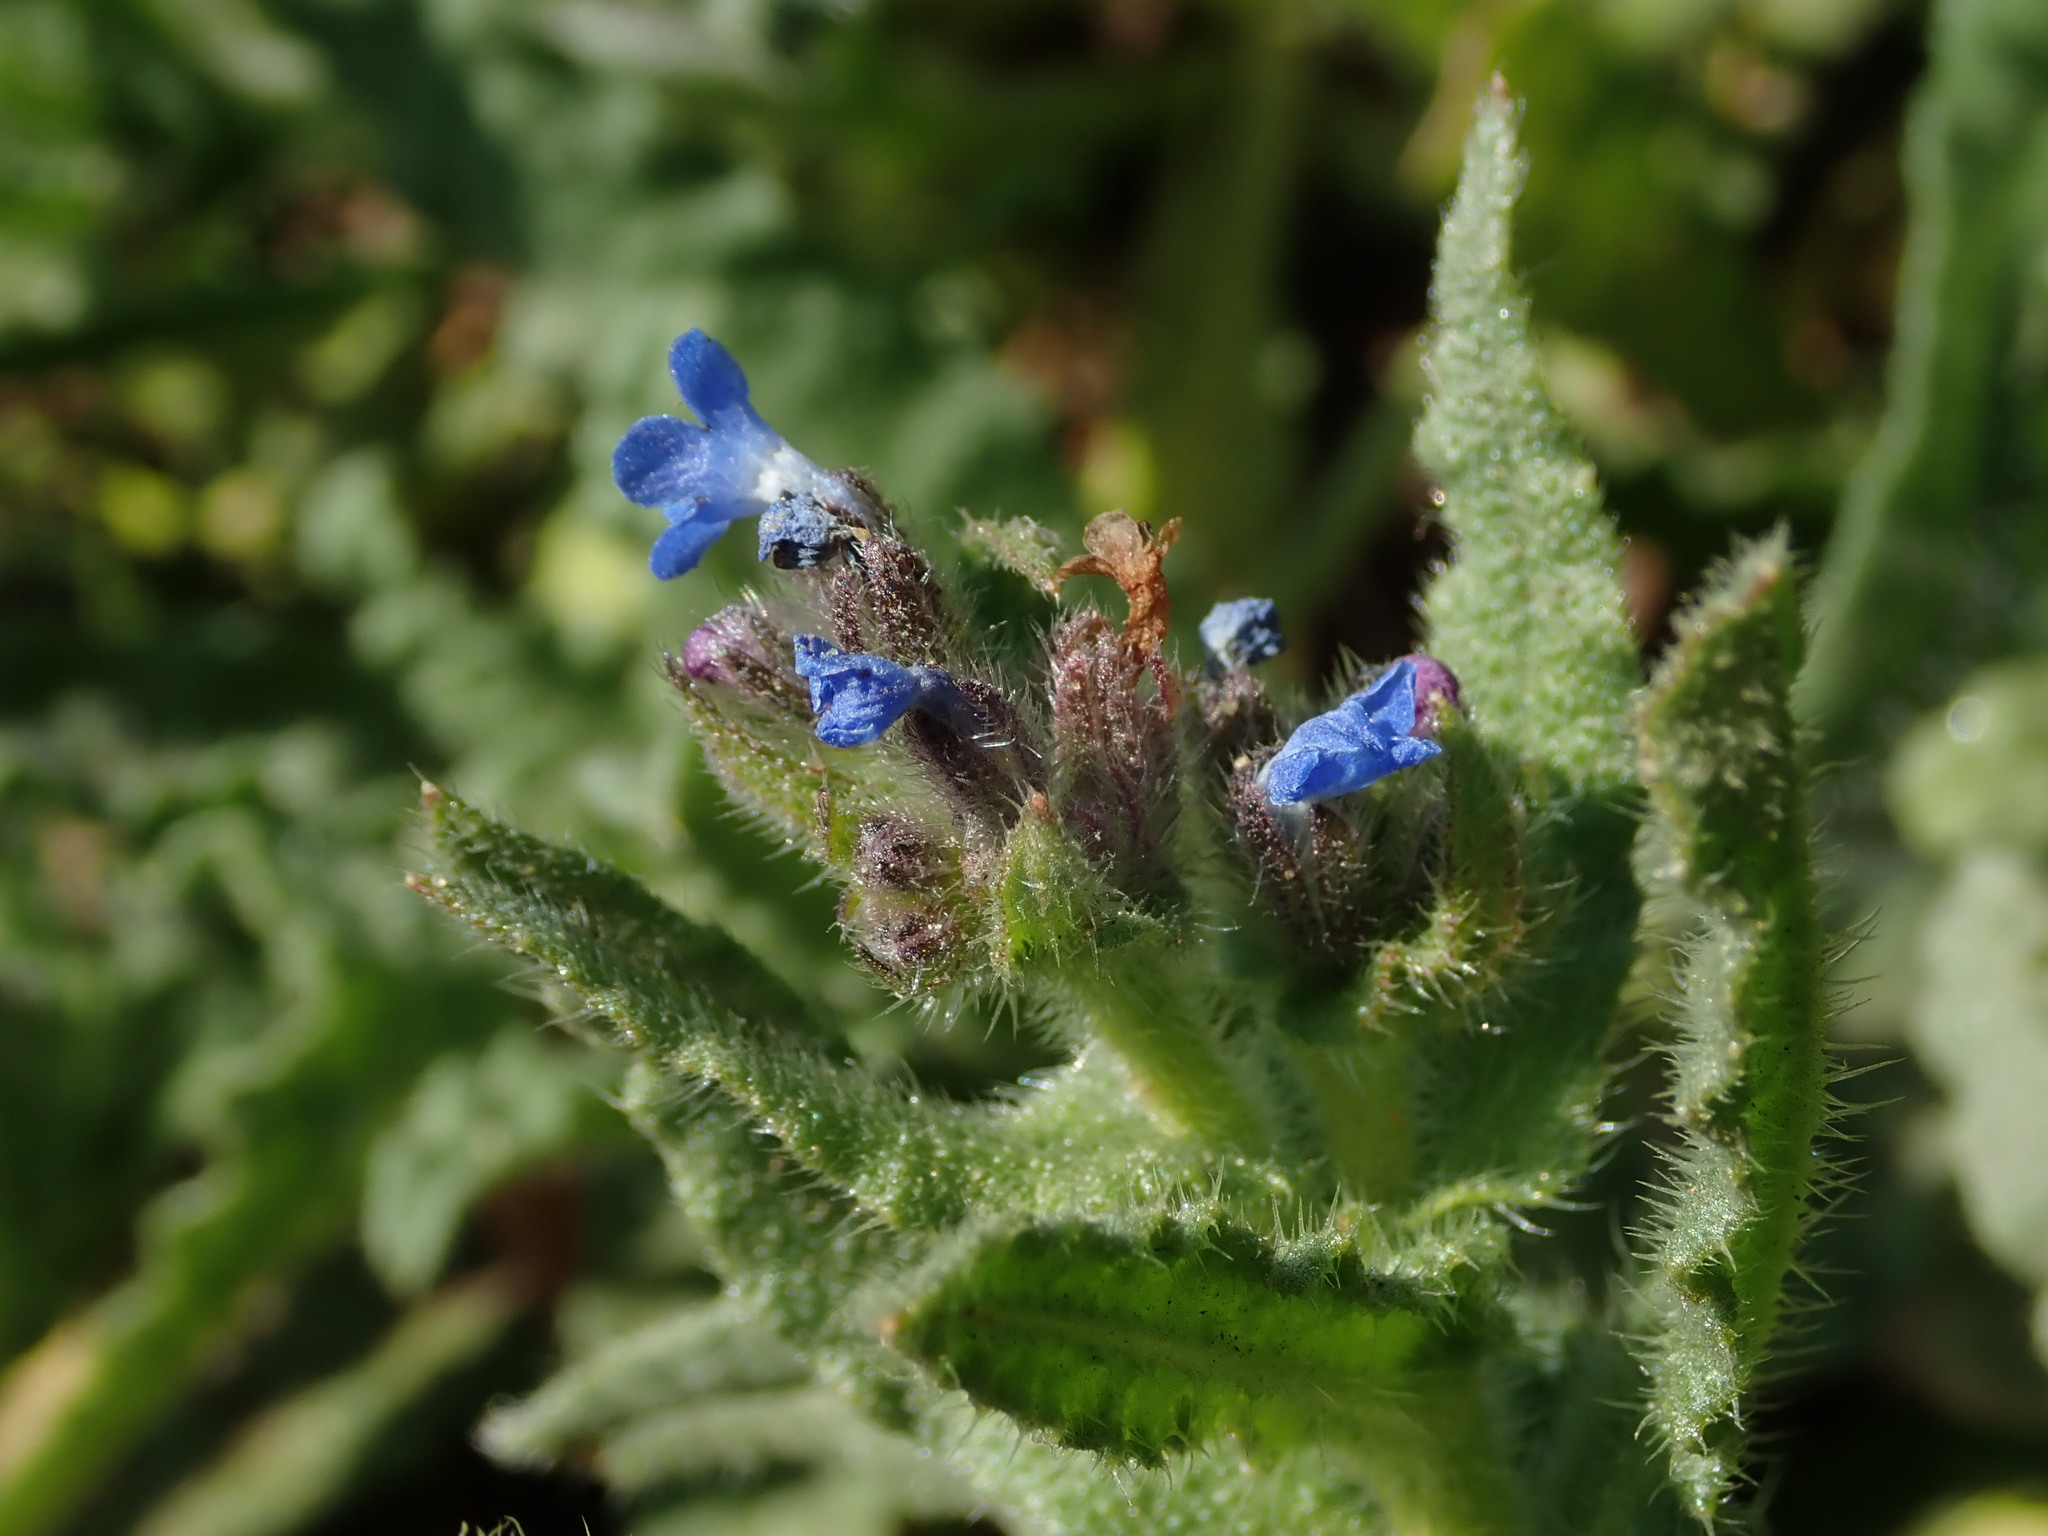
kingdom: Plantae
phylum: Tracheophyta
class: Magnoliopsida
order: Boraginales
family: Boraginaceae
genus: Lycopsis
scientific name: Lycopsis arvensis
